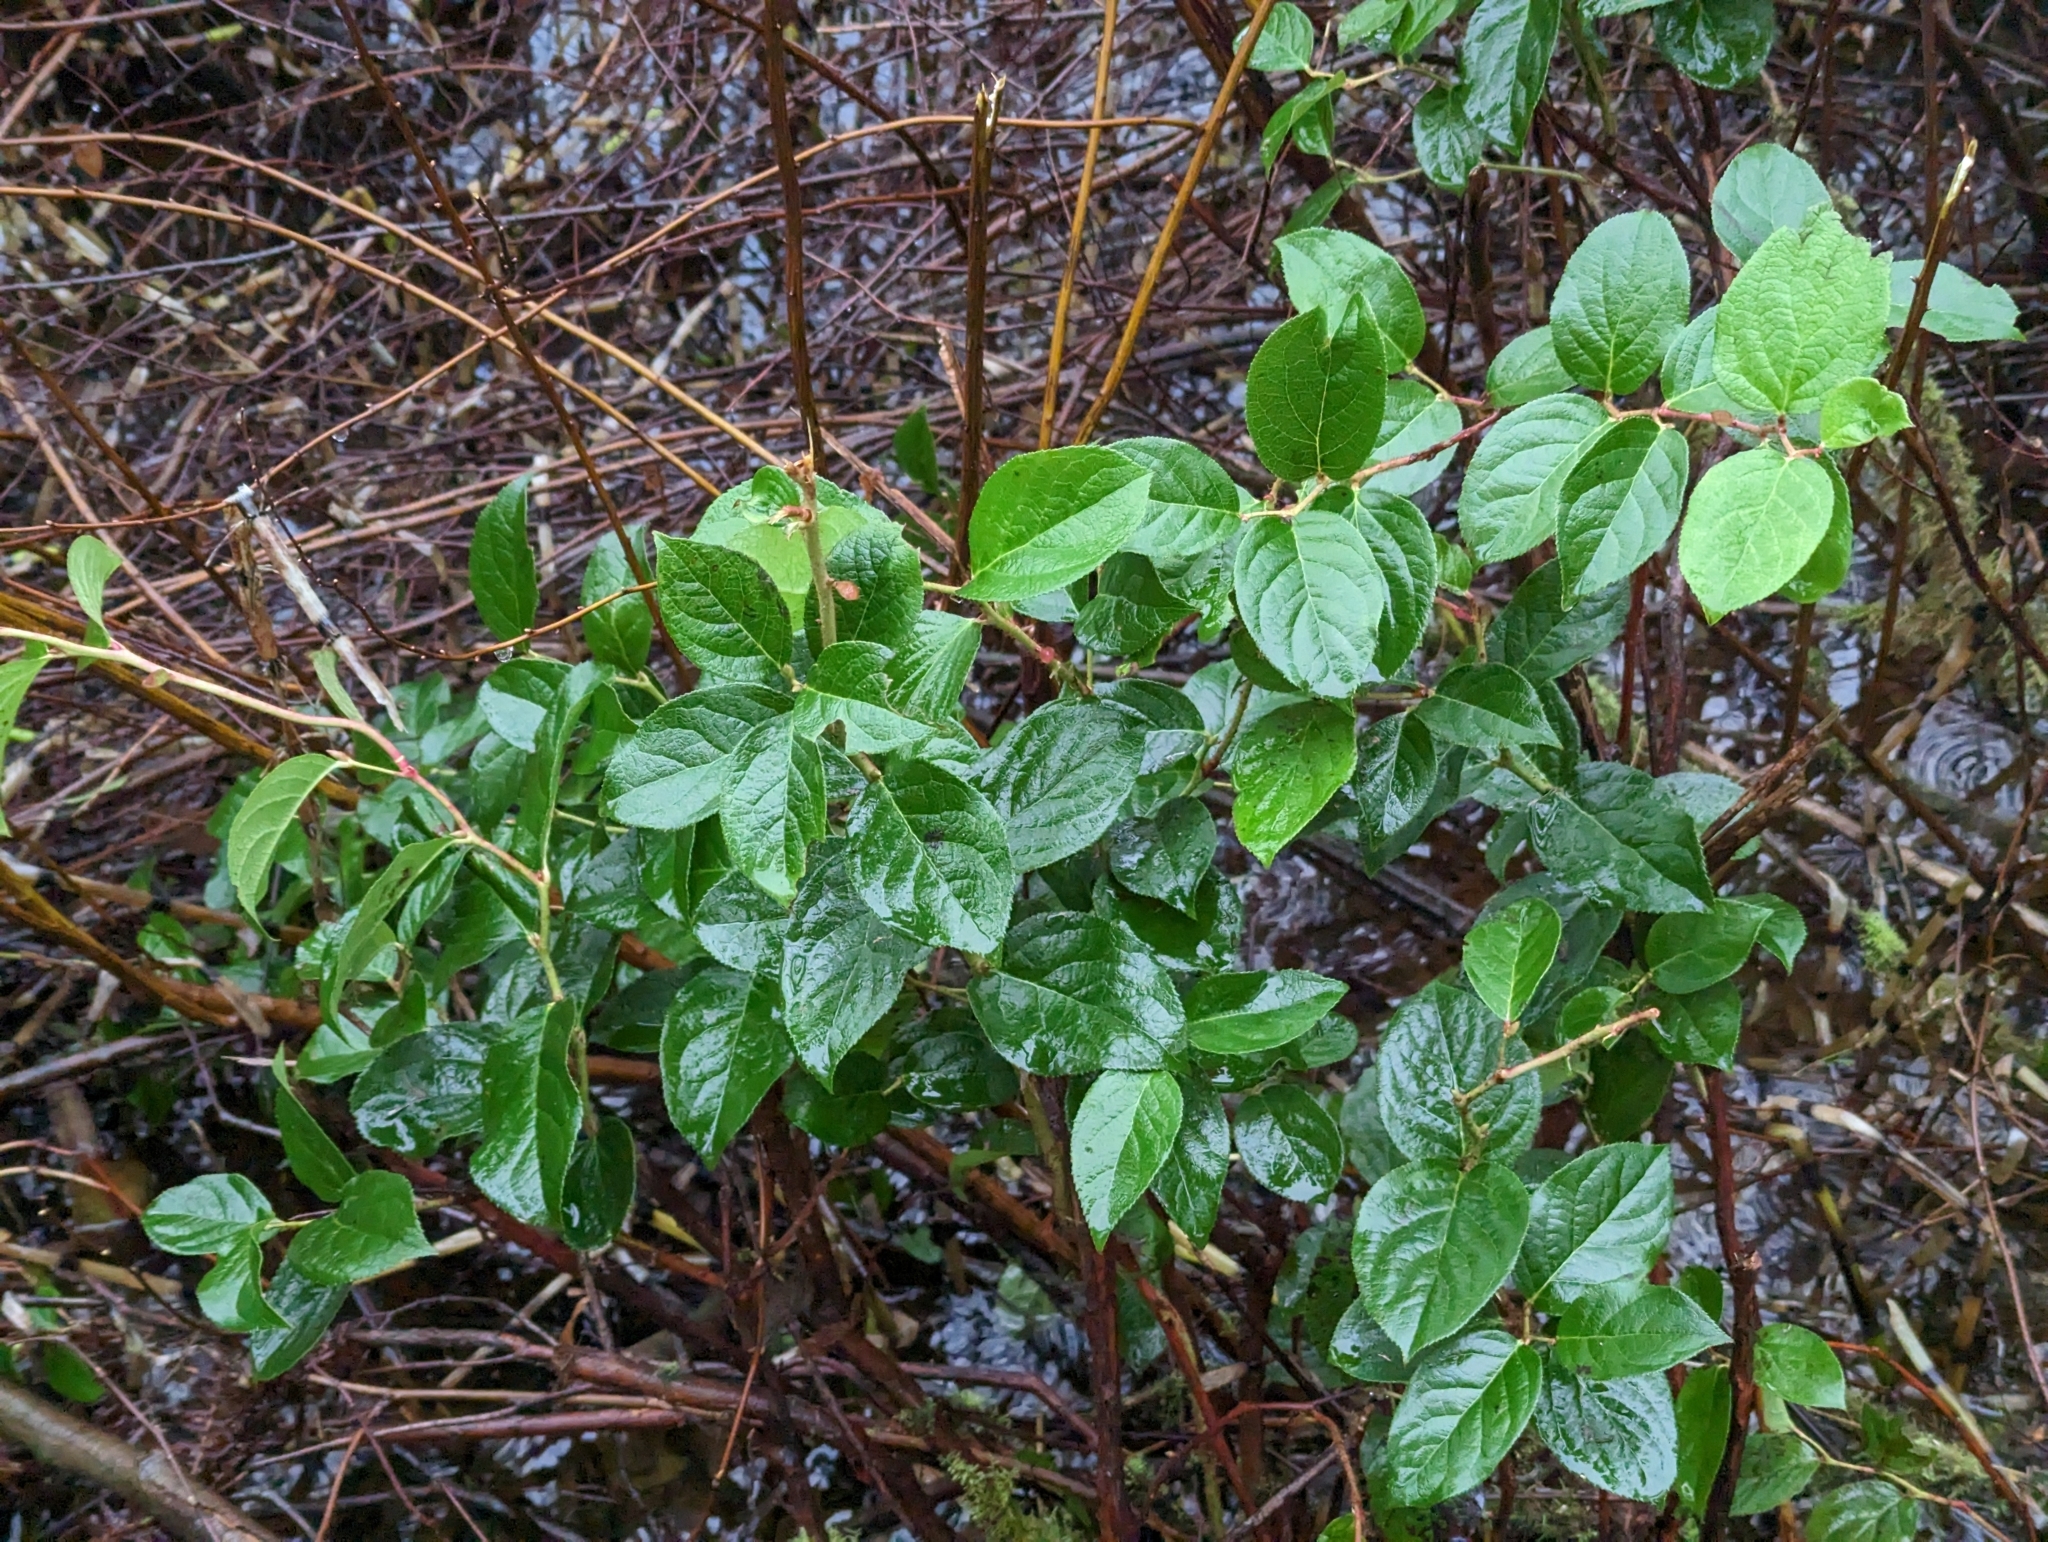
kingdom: Plantae
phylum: Tracheophyta
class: Magnoliopsida
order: Ericales
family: Ericaceae
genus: Gaultheria
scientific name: Gaultheria shallon
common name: Shallon
